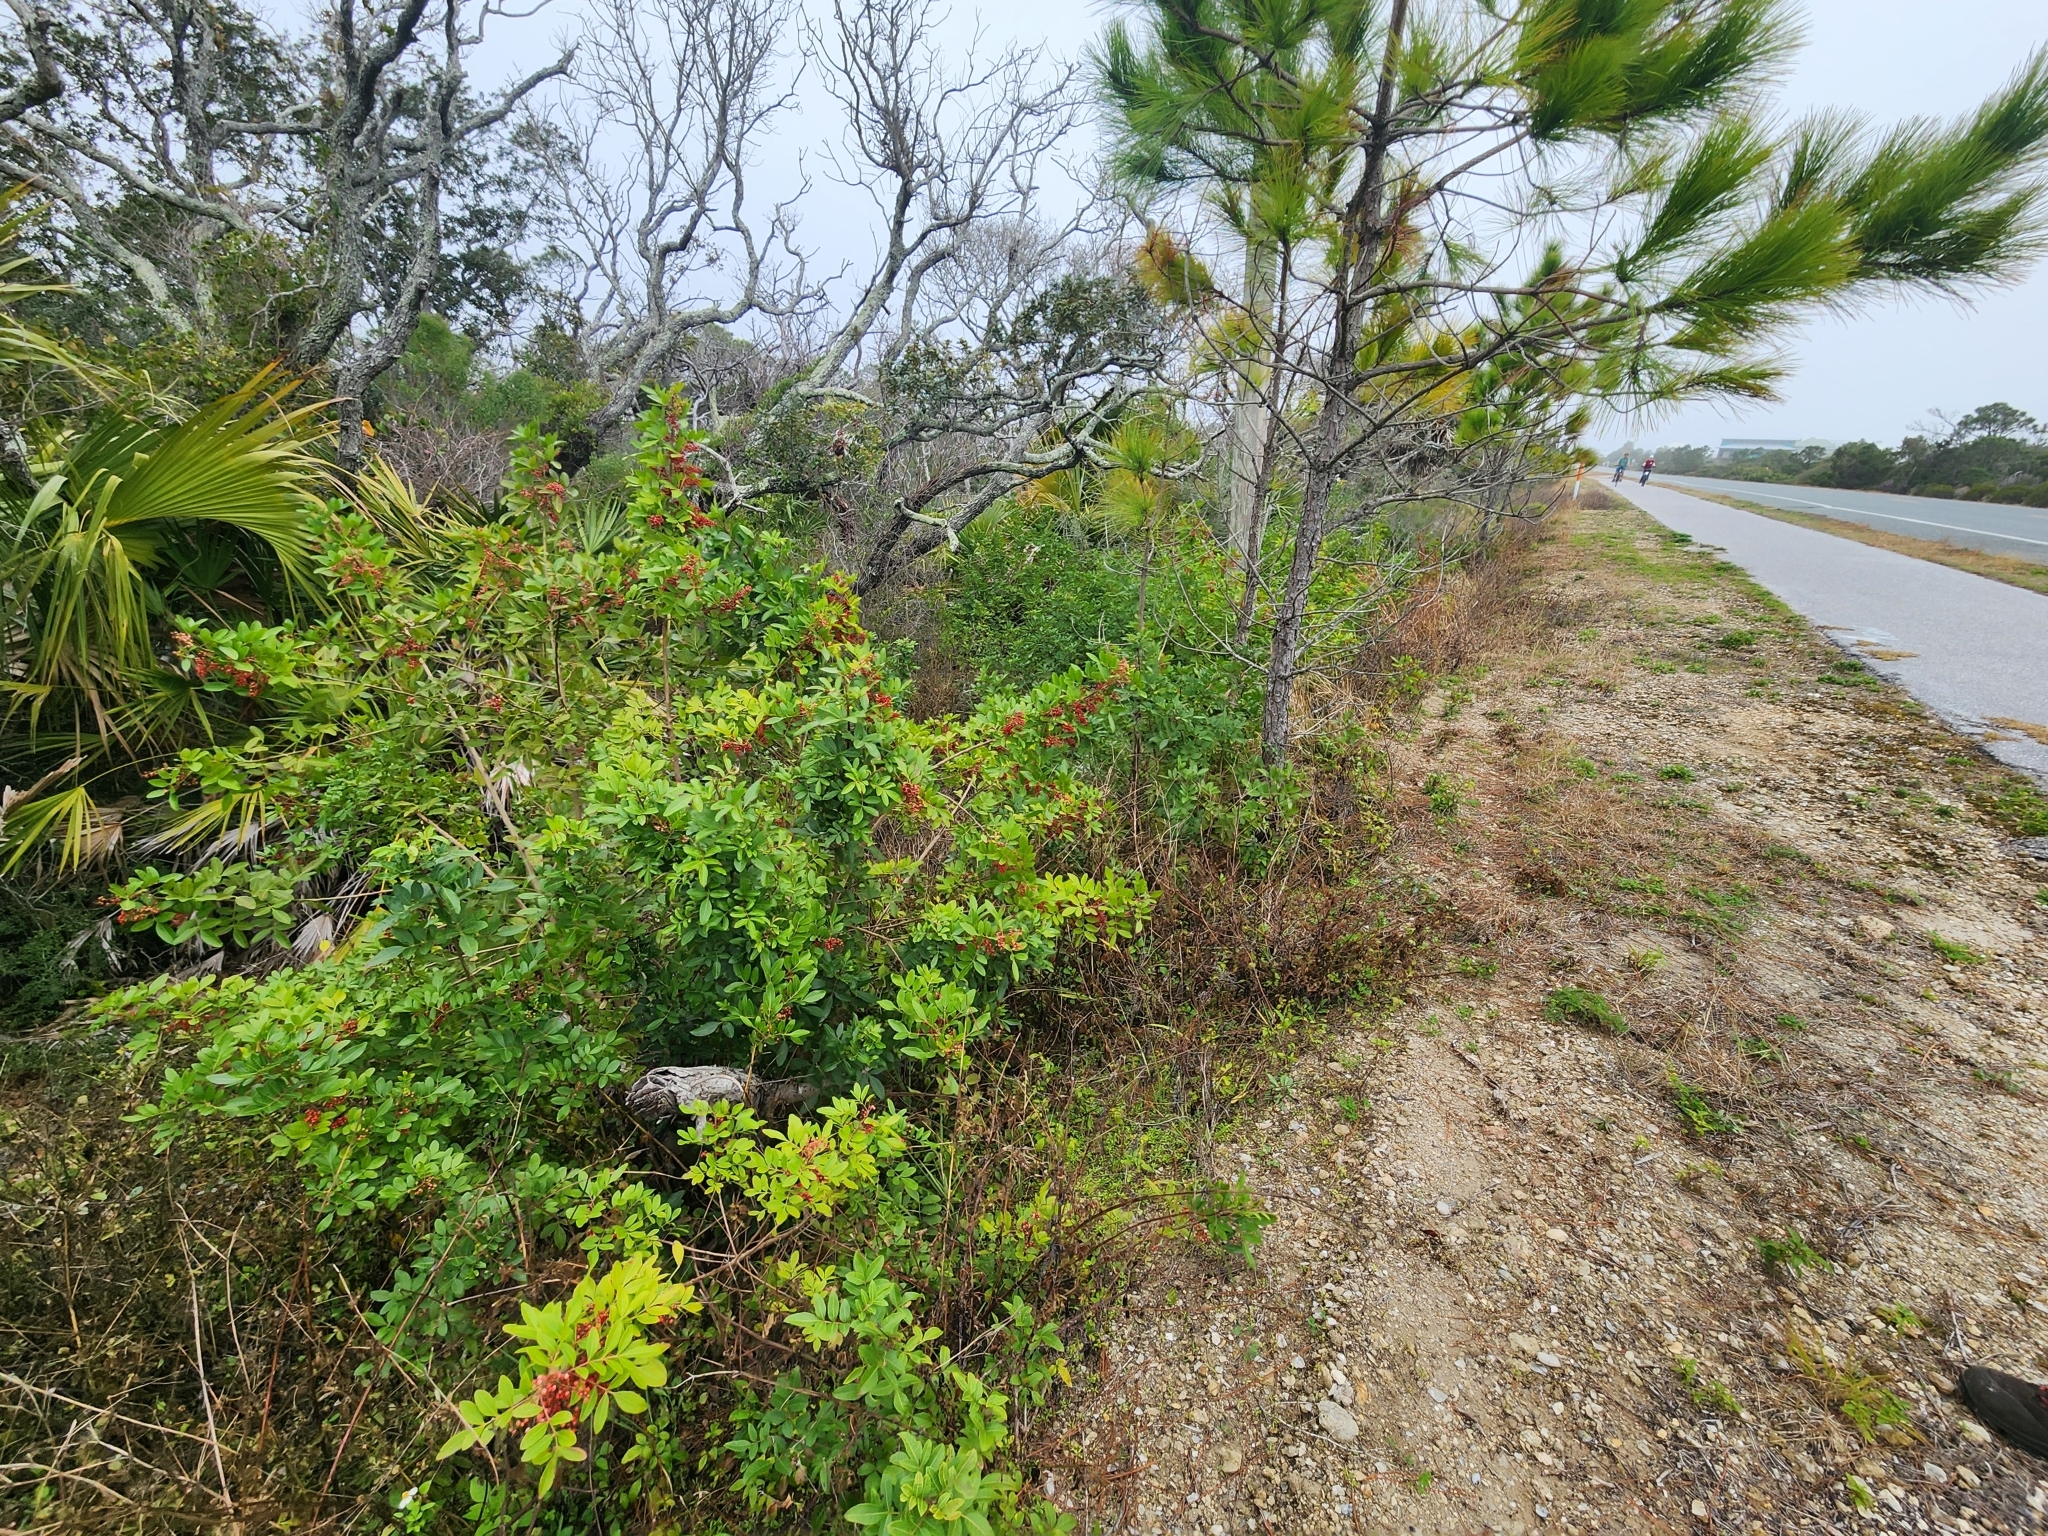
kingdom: Plantae
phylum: Tracheophyta
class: Magnoliopsida
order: Sapindales
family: Anacardiaceae
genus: Schinus
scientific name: Schinus terebinthifolia
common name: Brazilian peppertree
